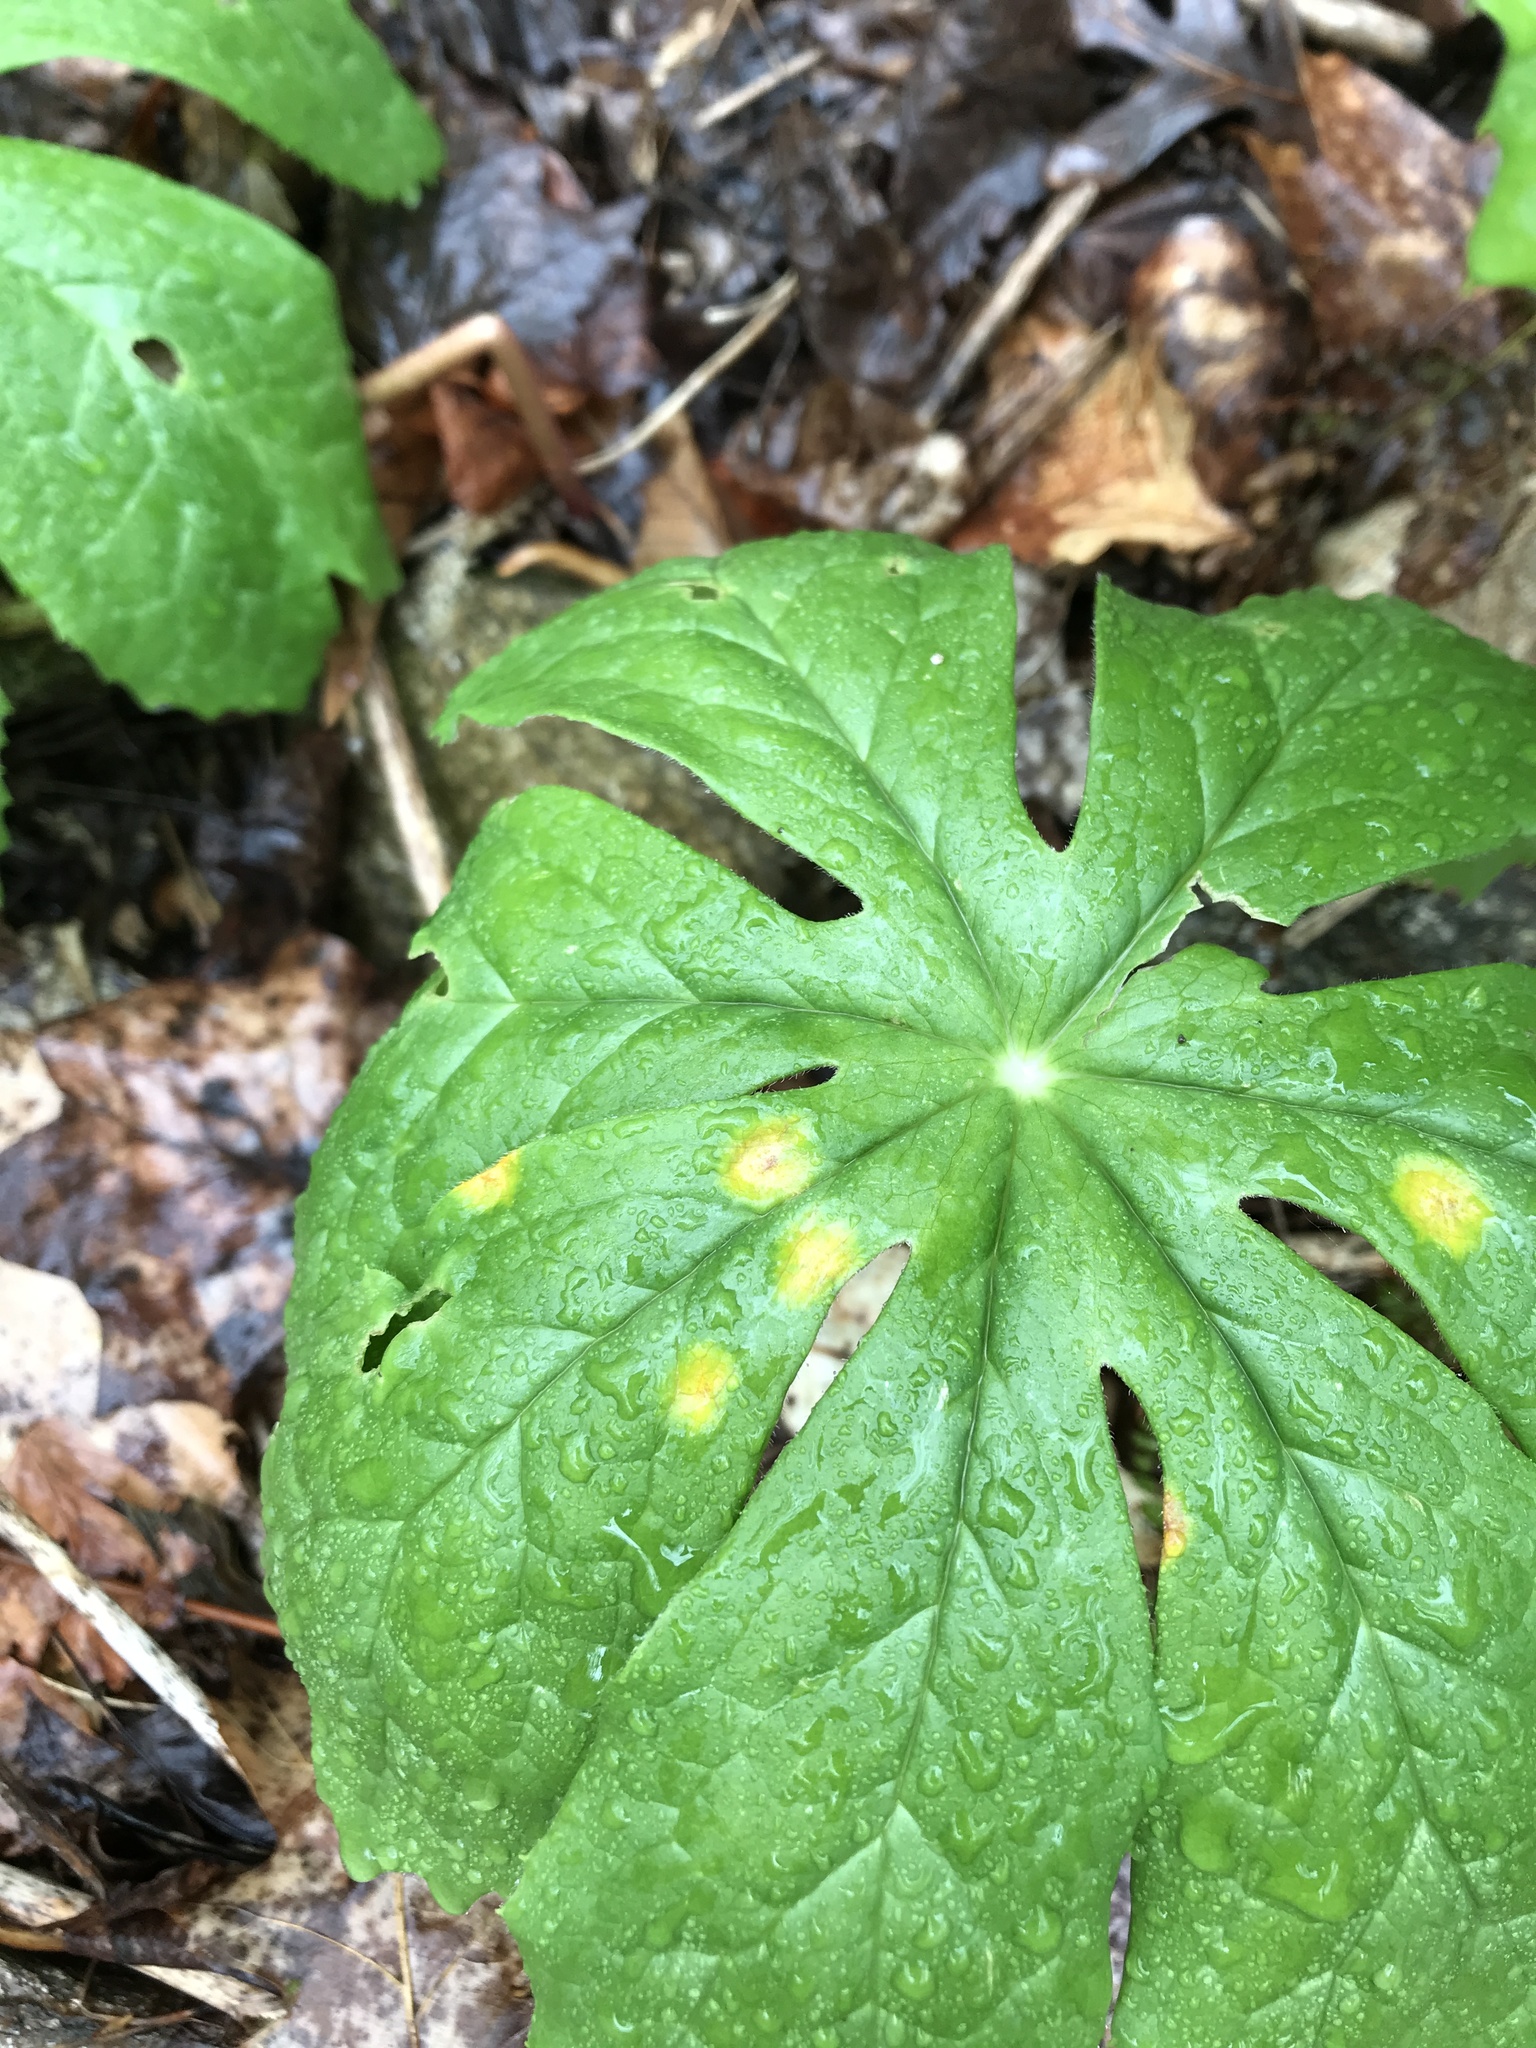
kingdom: Fungi
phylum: Basidiomycota
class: Pucciniomycetes
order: Pucciniales
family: Pucciniaceae
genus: Puccinia
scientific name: Puccinia podophylli
